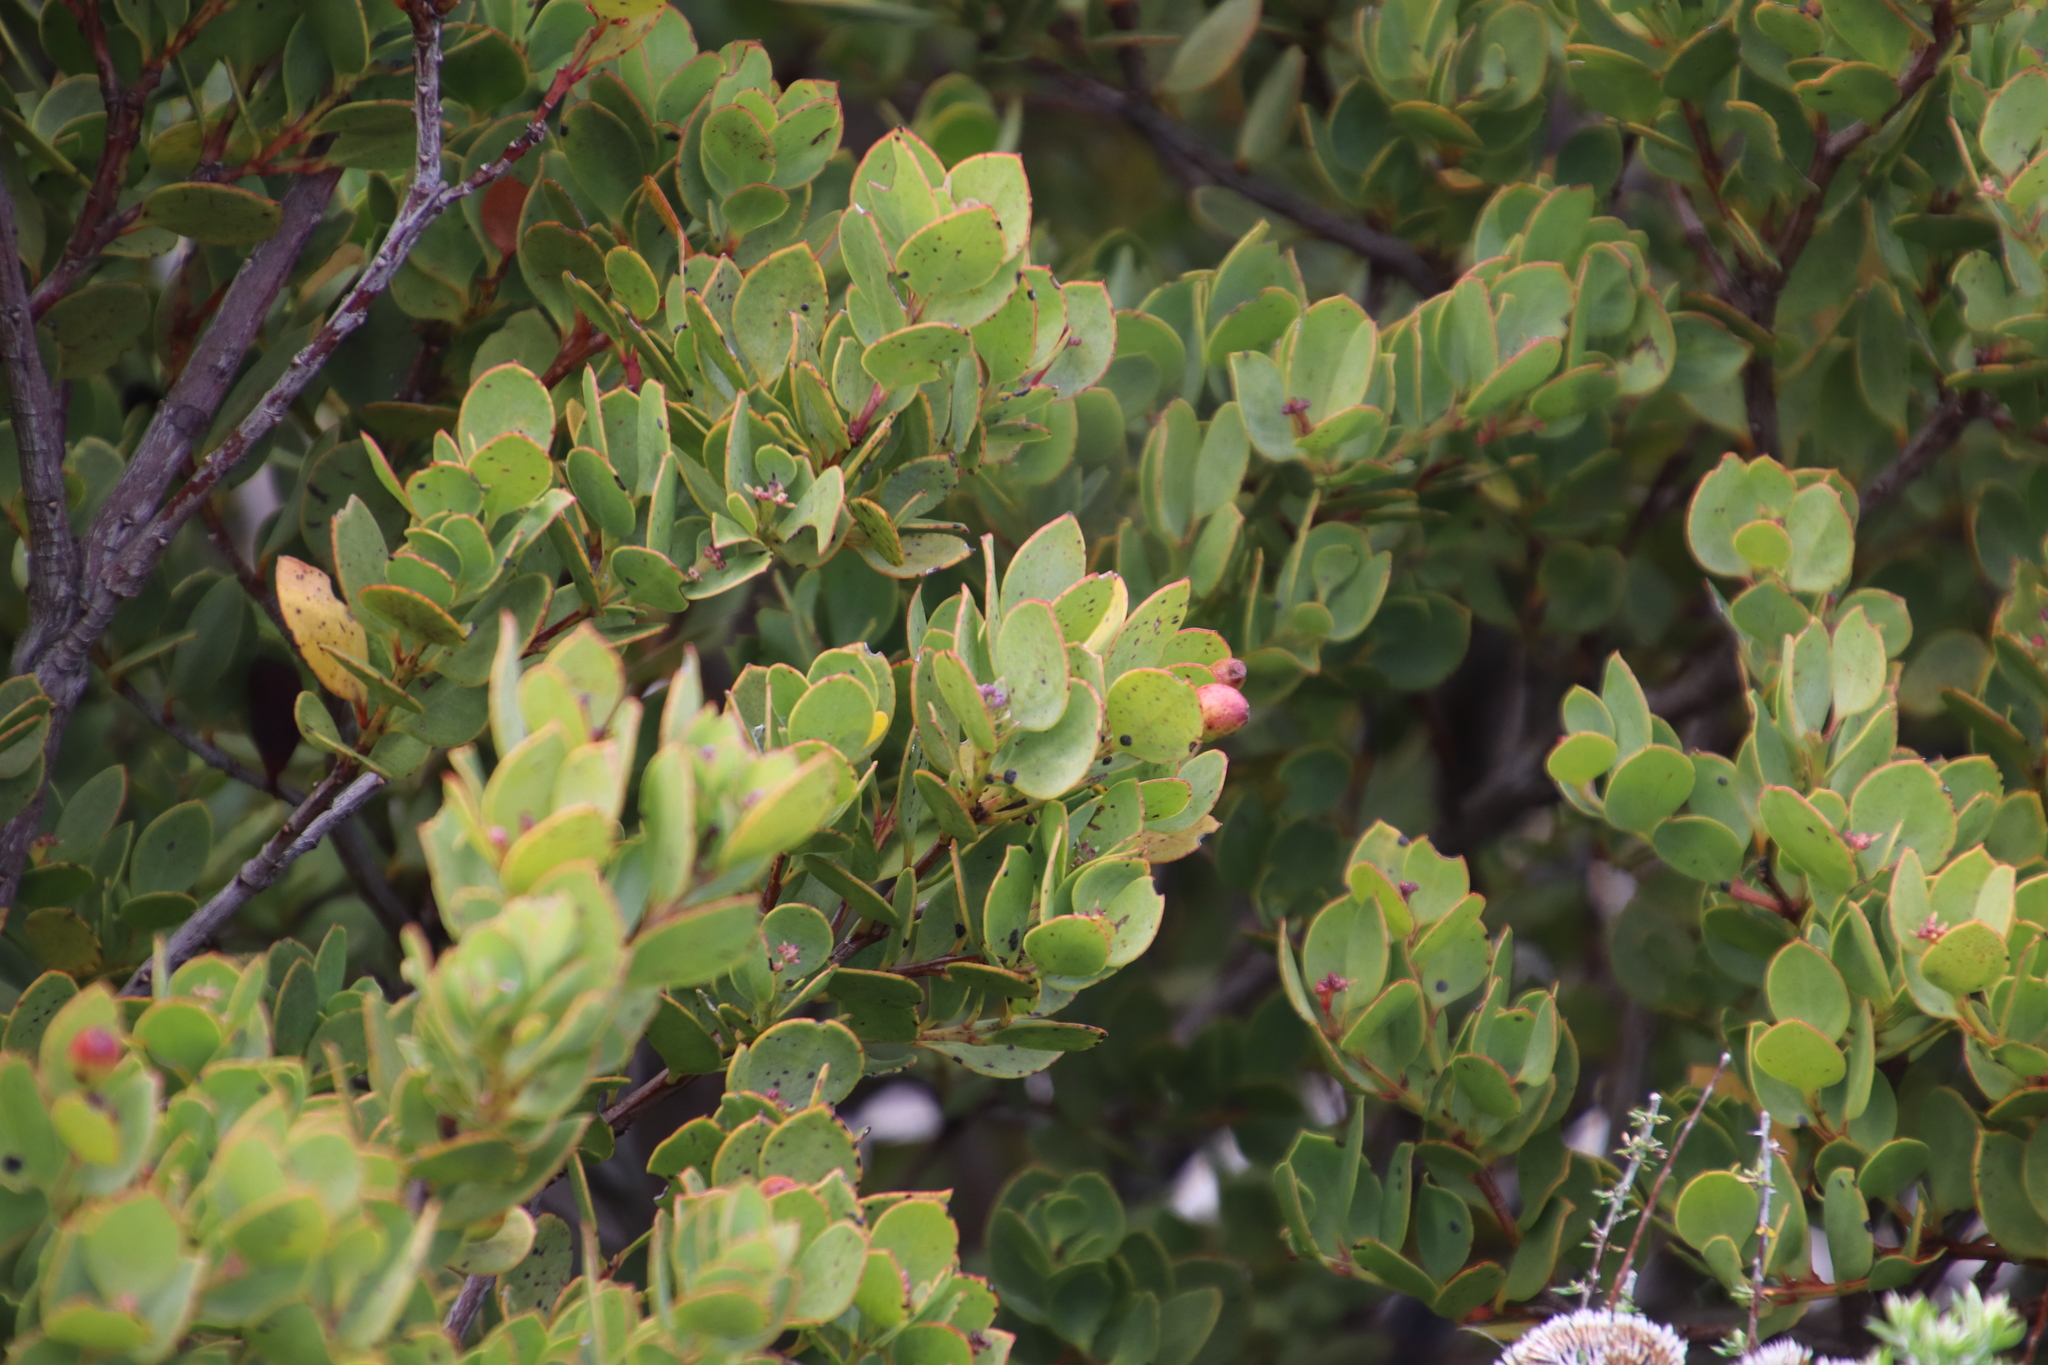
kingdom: Plantae
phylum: Tracheophyta
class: Magnoliopsida
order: Santalales
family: Santalaceae
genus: Osyris
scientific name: Osyris compressa
